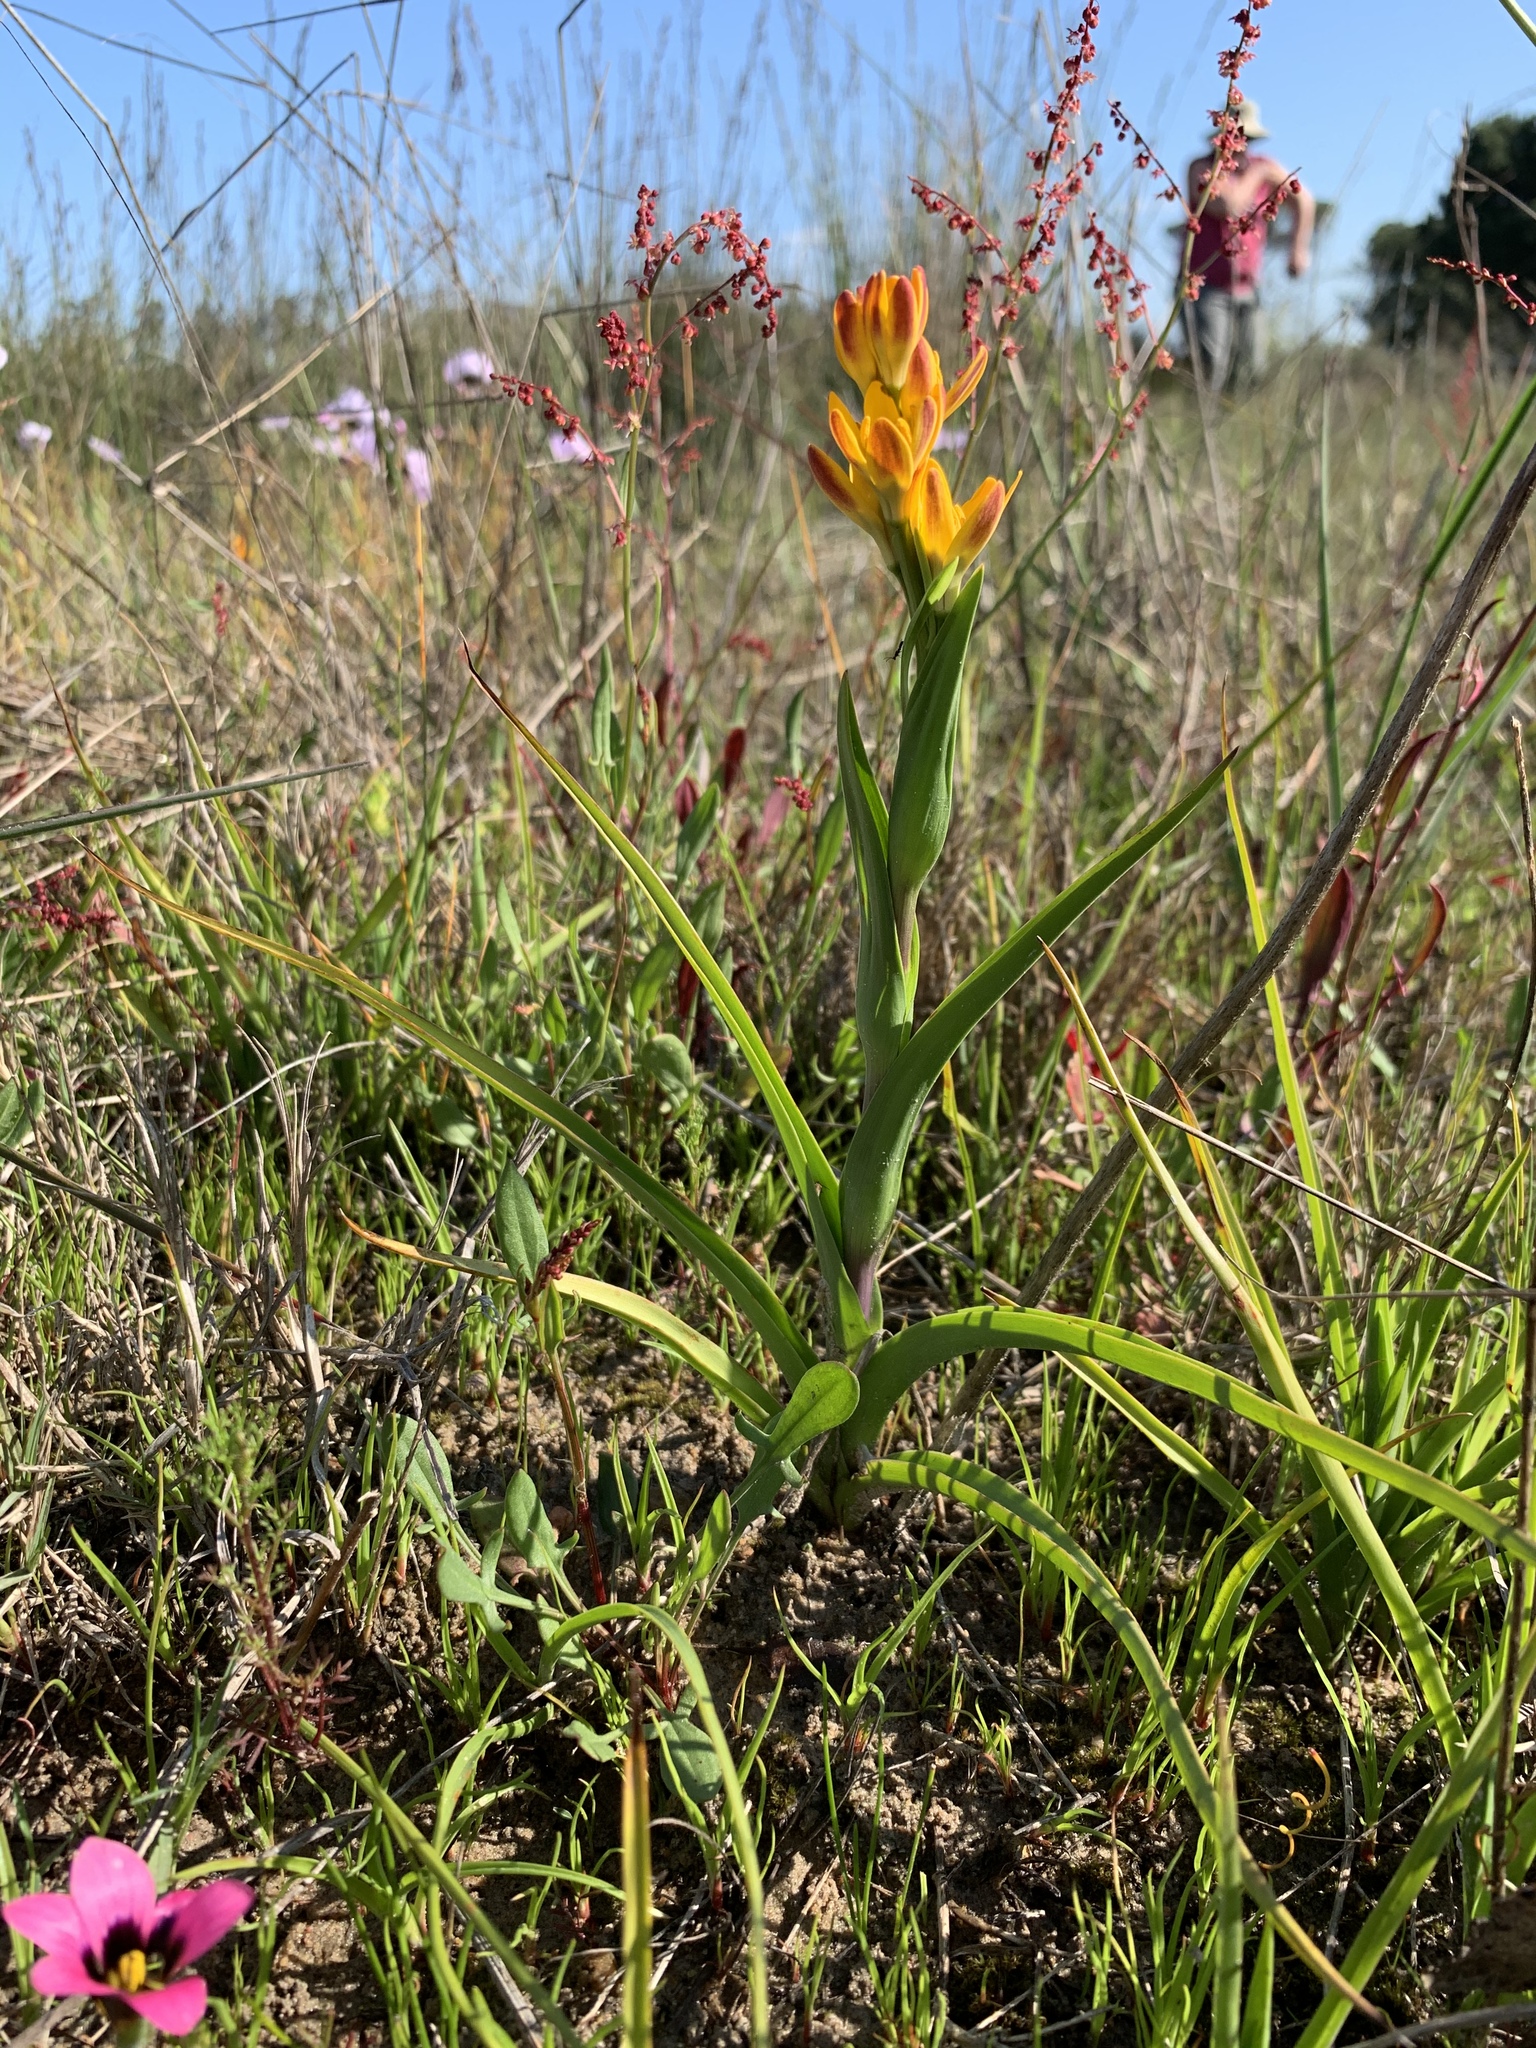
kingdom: Plantae
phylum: Tracheophyta
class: Liliopsida
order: Liliales
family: Colchicaceae
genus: Baeometra
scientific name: Baeometra uniflora
